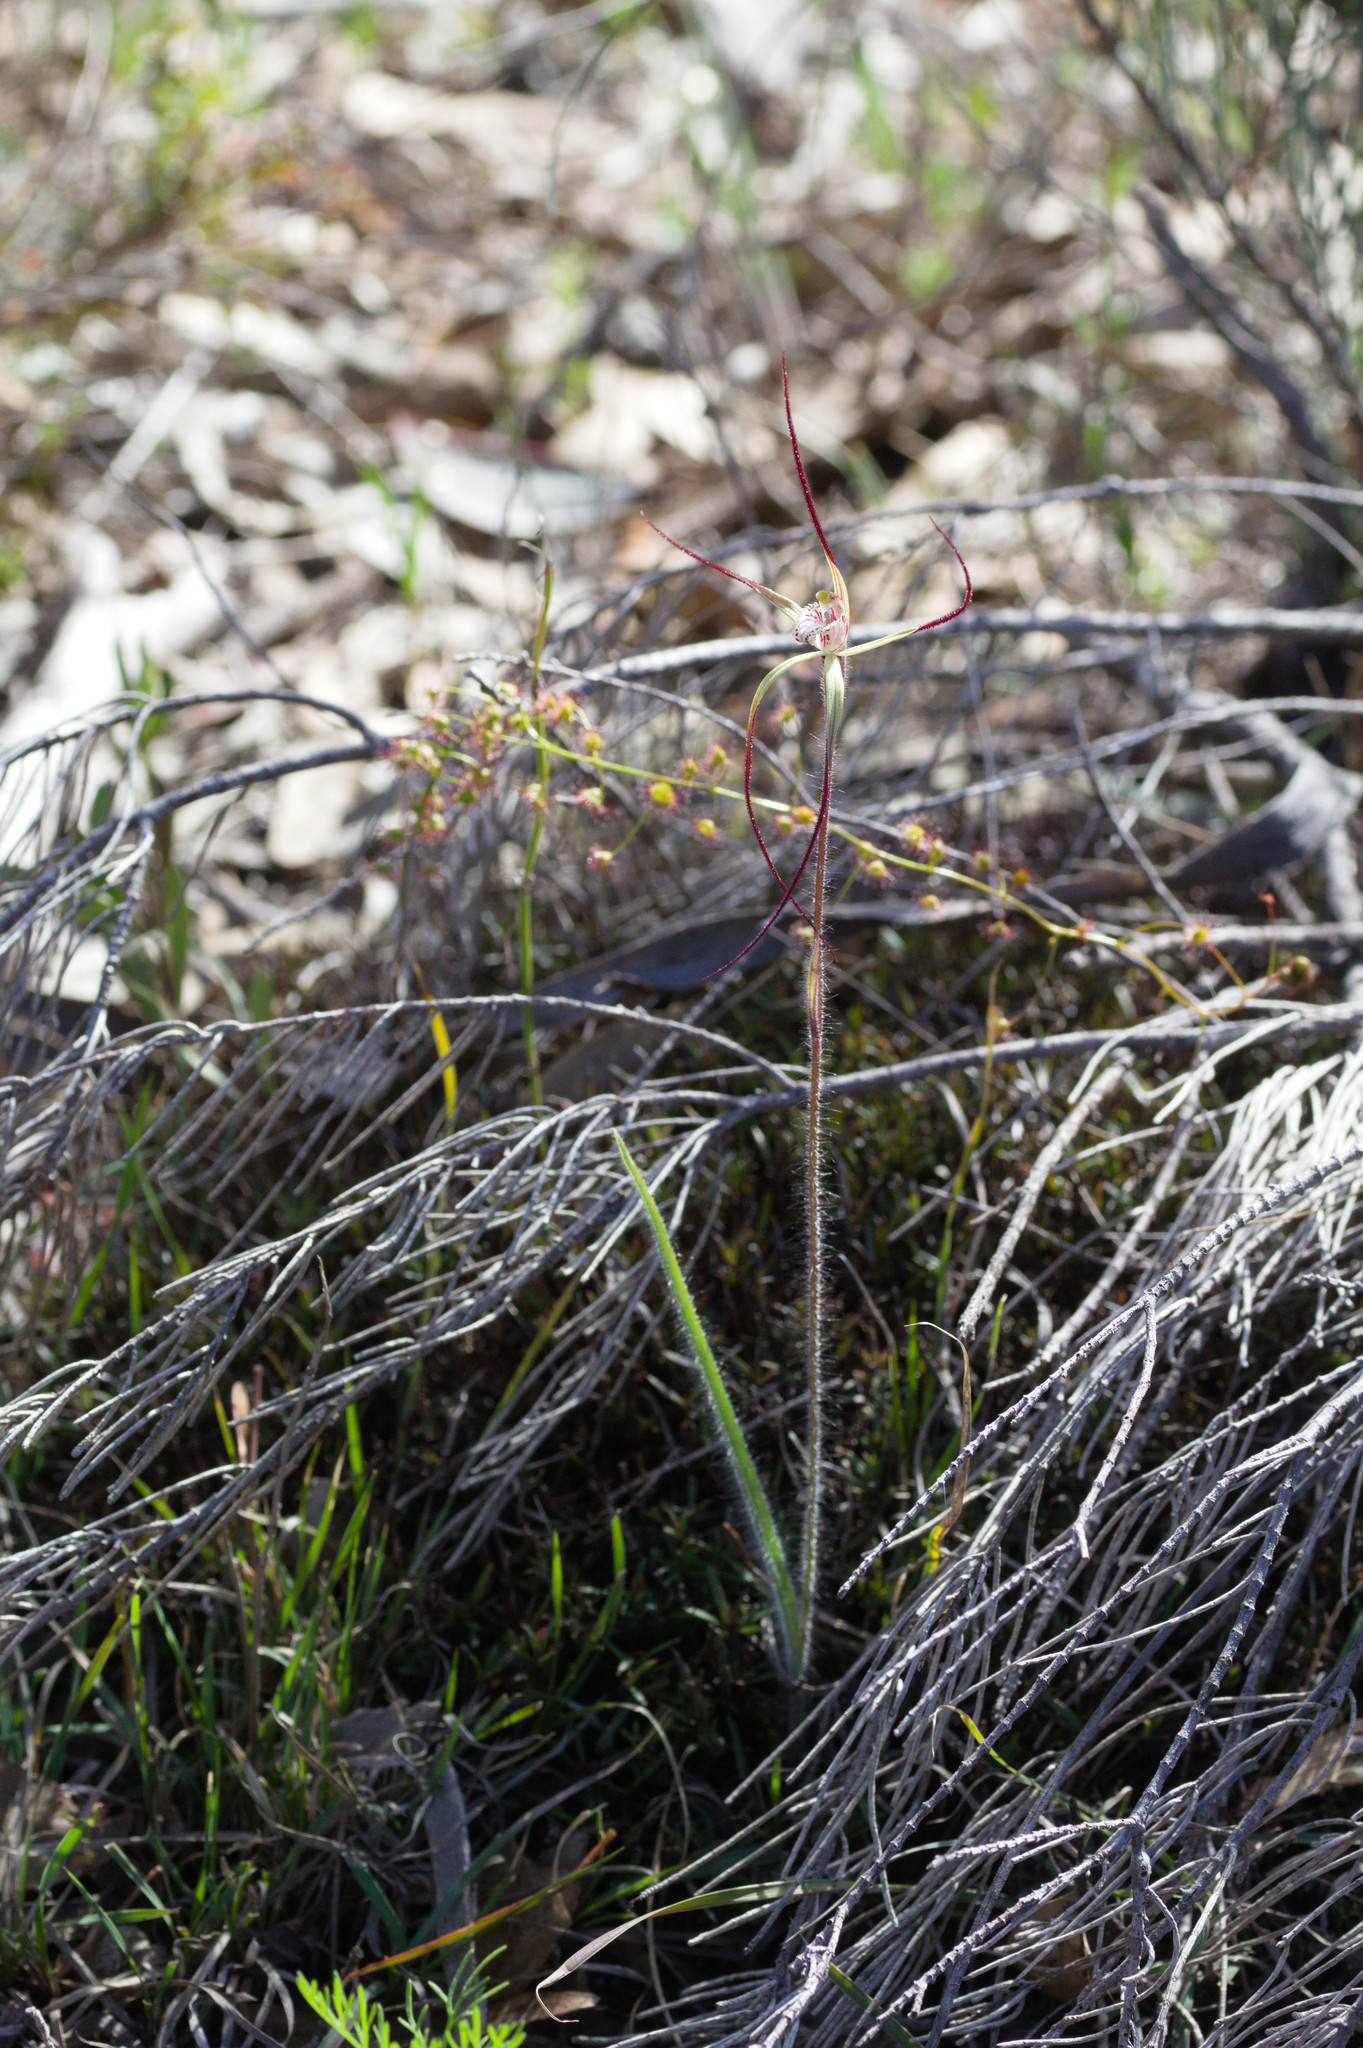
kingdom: Plantae
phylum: Tracheophyta
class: Liliopsida
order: Asparagales
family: Orchidaceae
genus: Caladenia
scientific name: Caladenia polychroma
